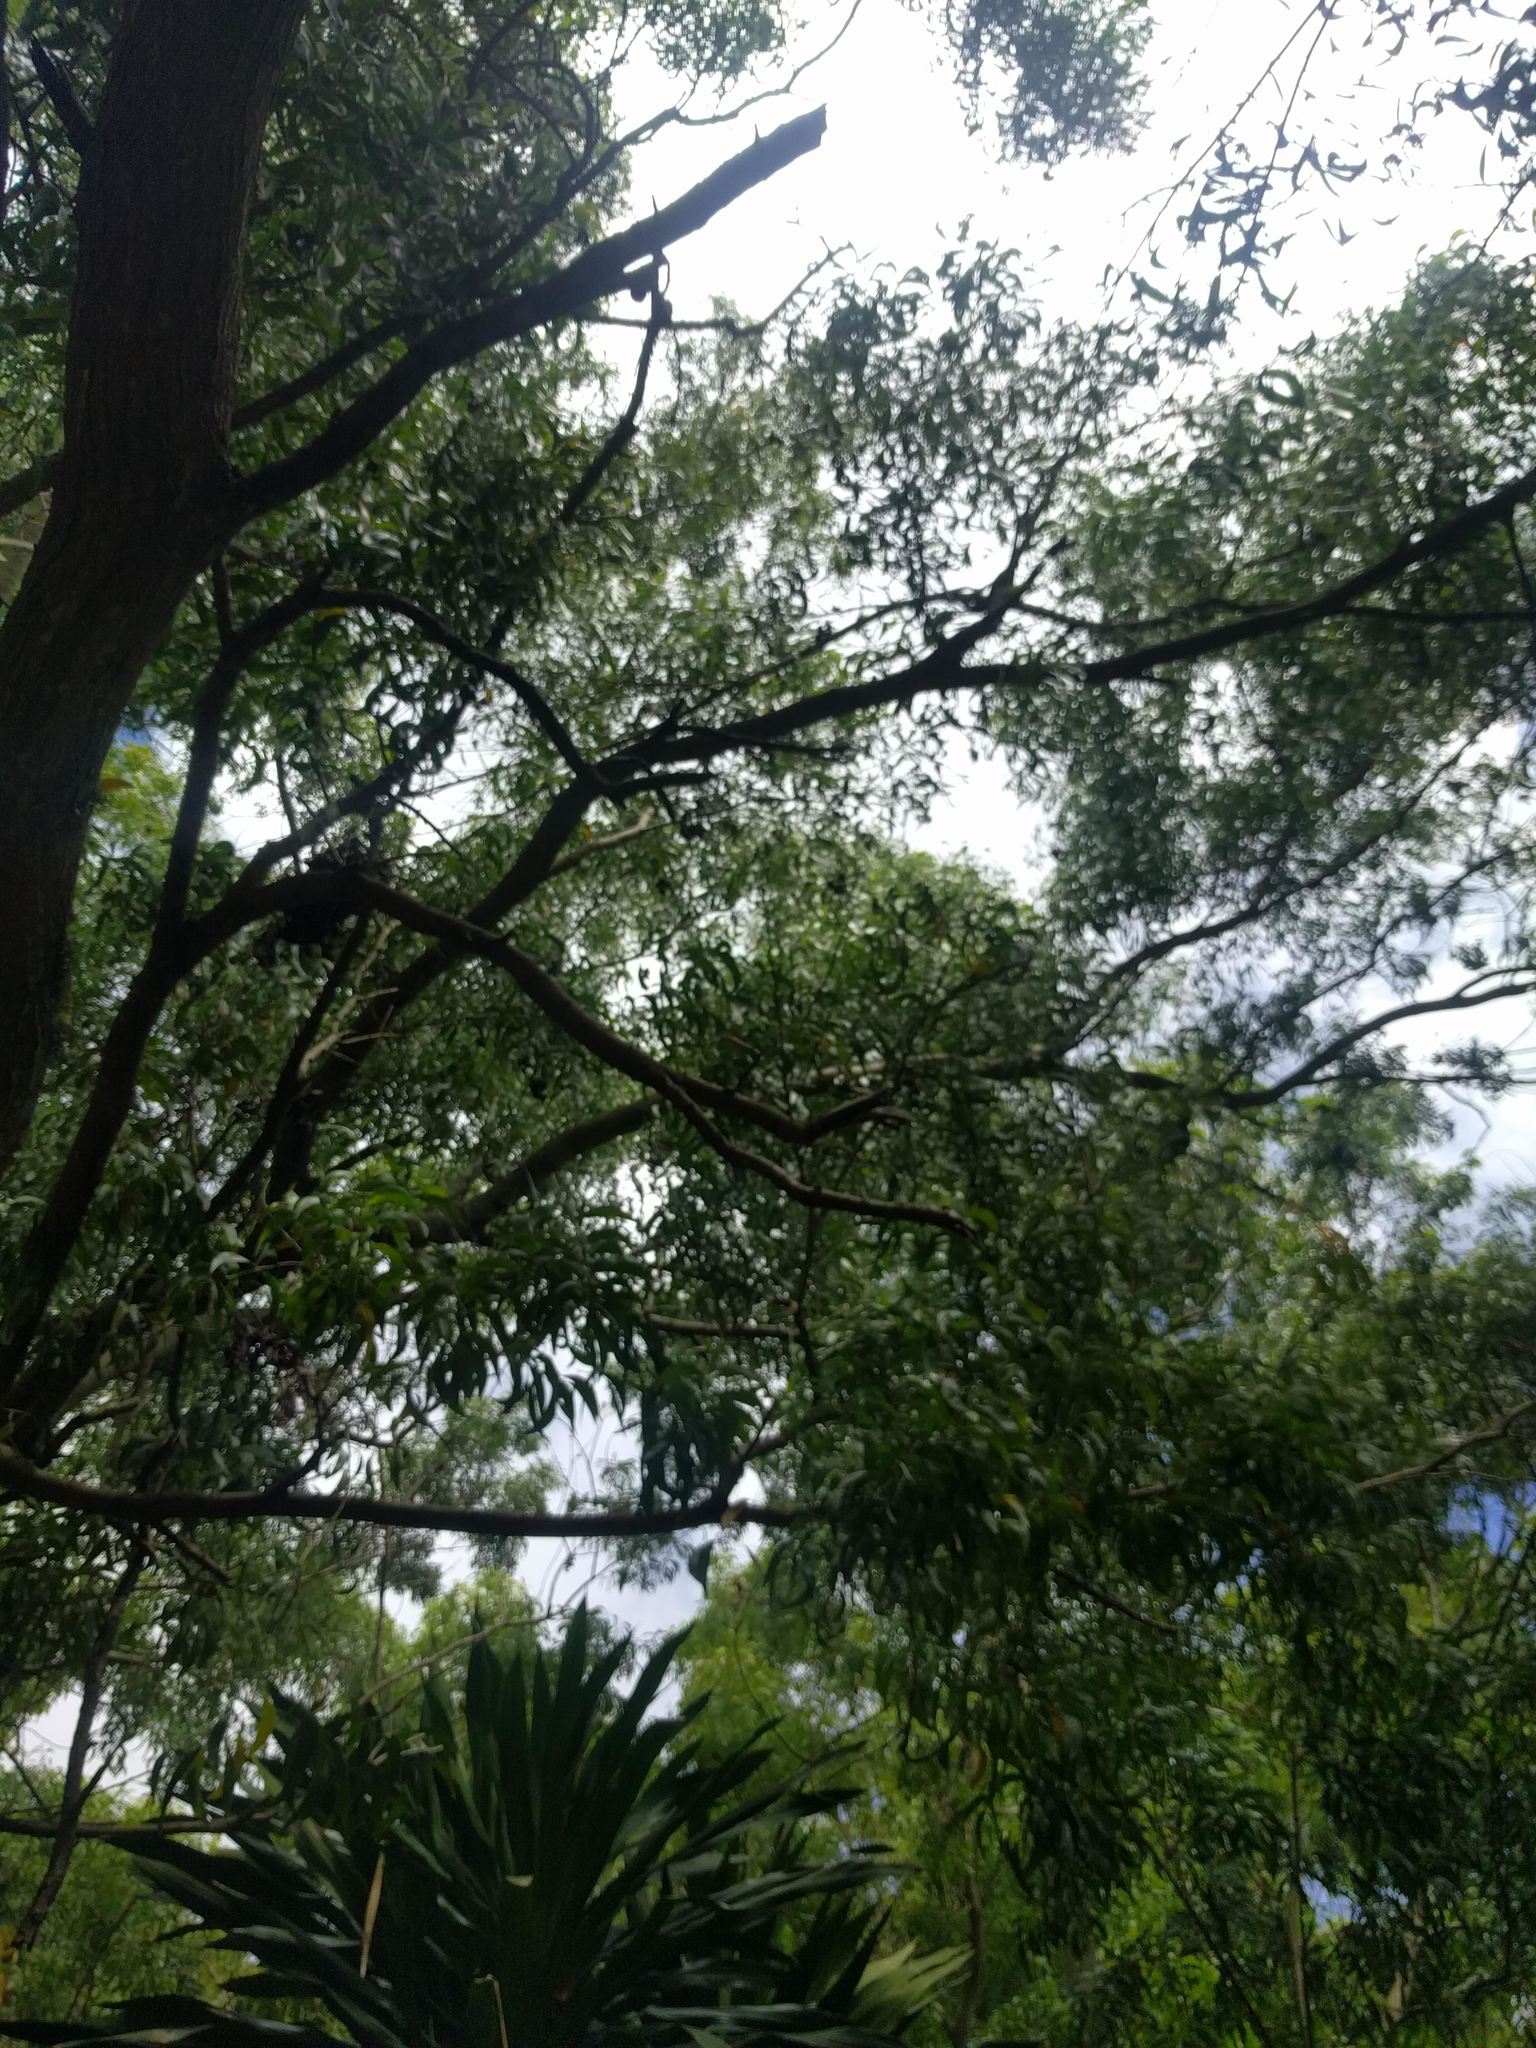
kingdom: Plantae
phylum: Tracheophyta
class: Magnoliopsida
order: Fabales
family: Fabaceae
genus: Acacia
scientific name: Acacia auriculiformis
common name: Earleaf acacia
